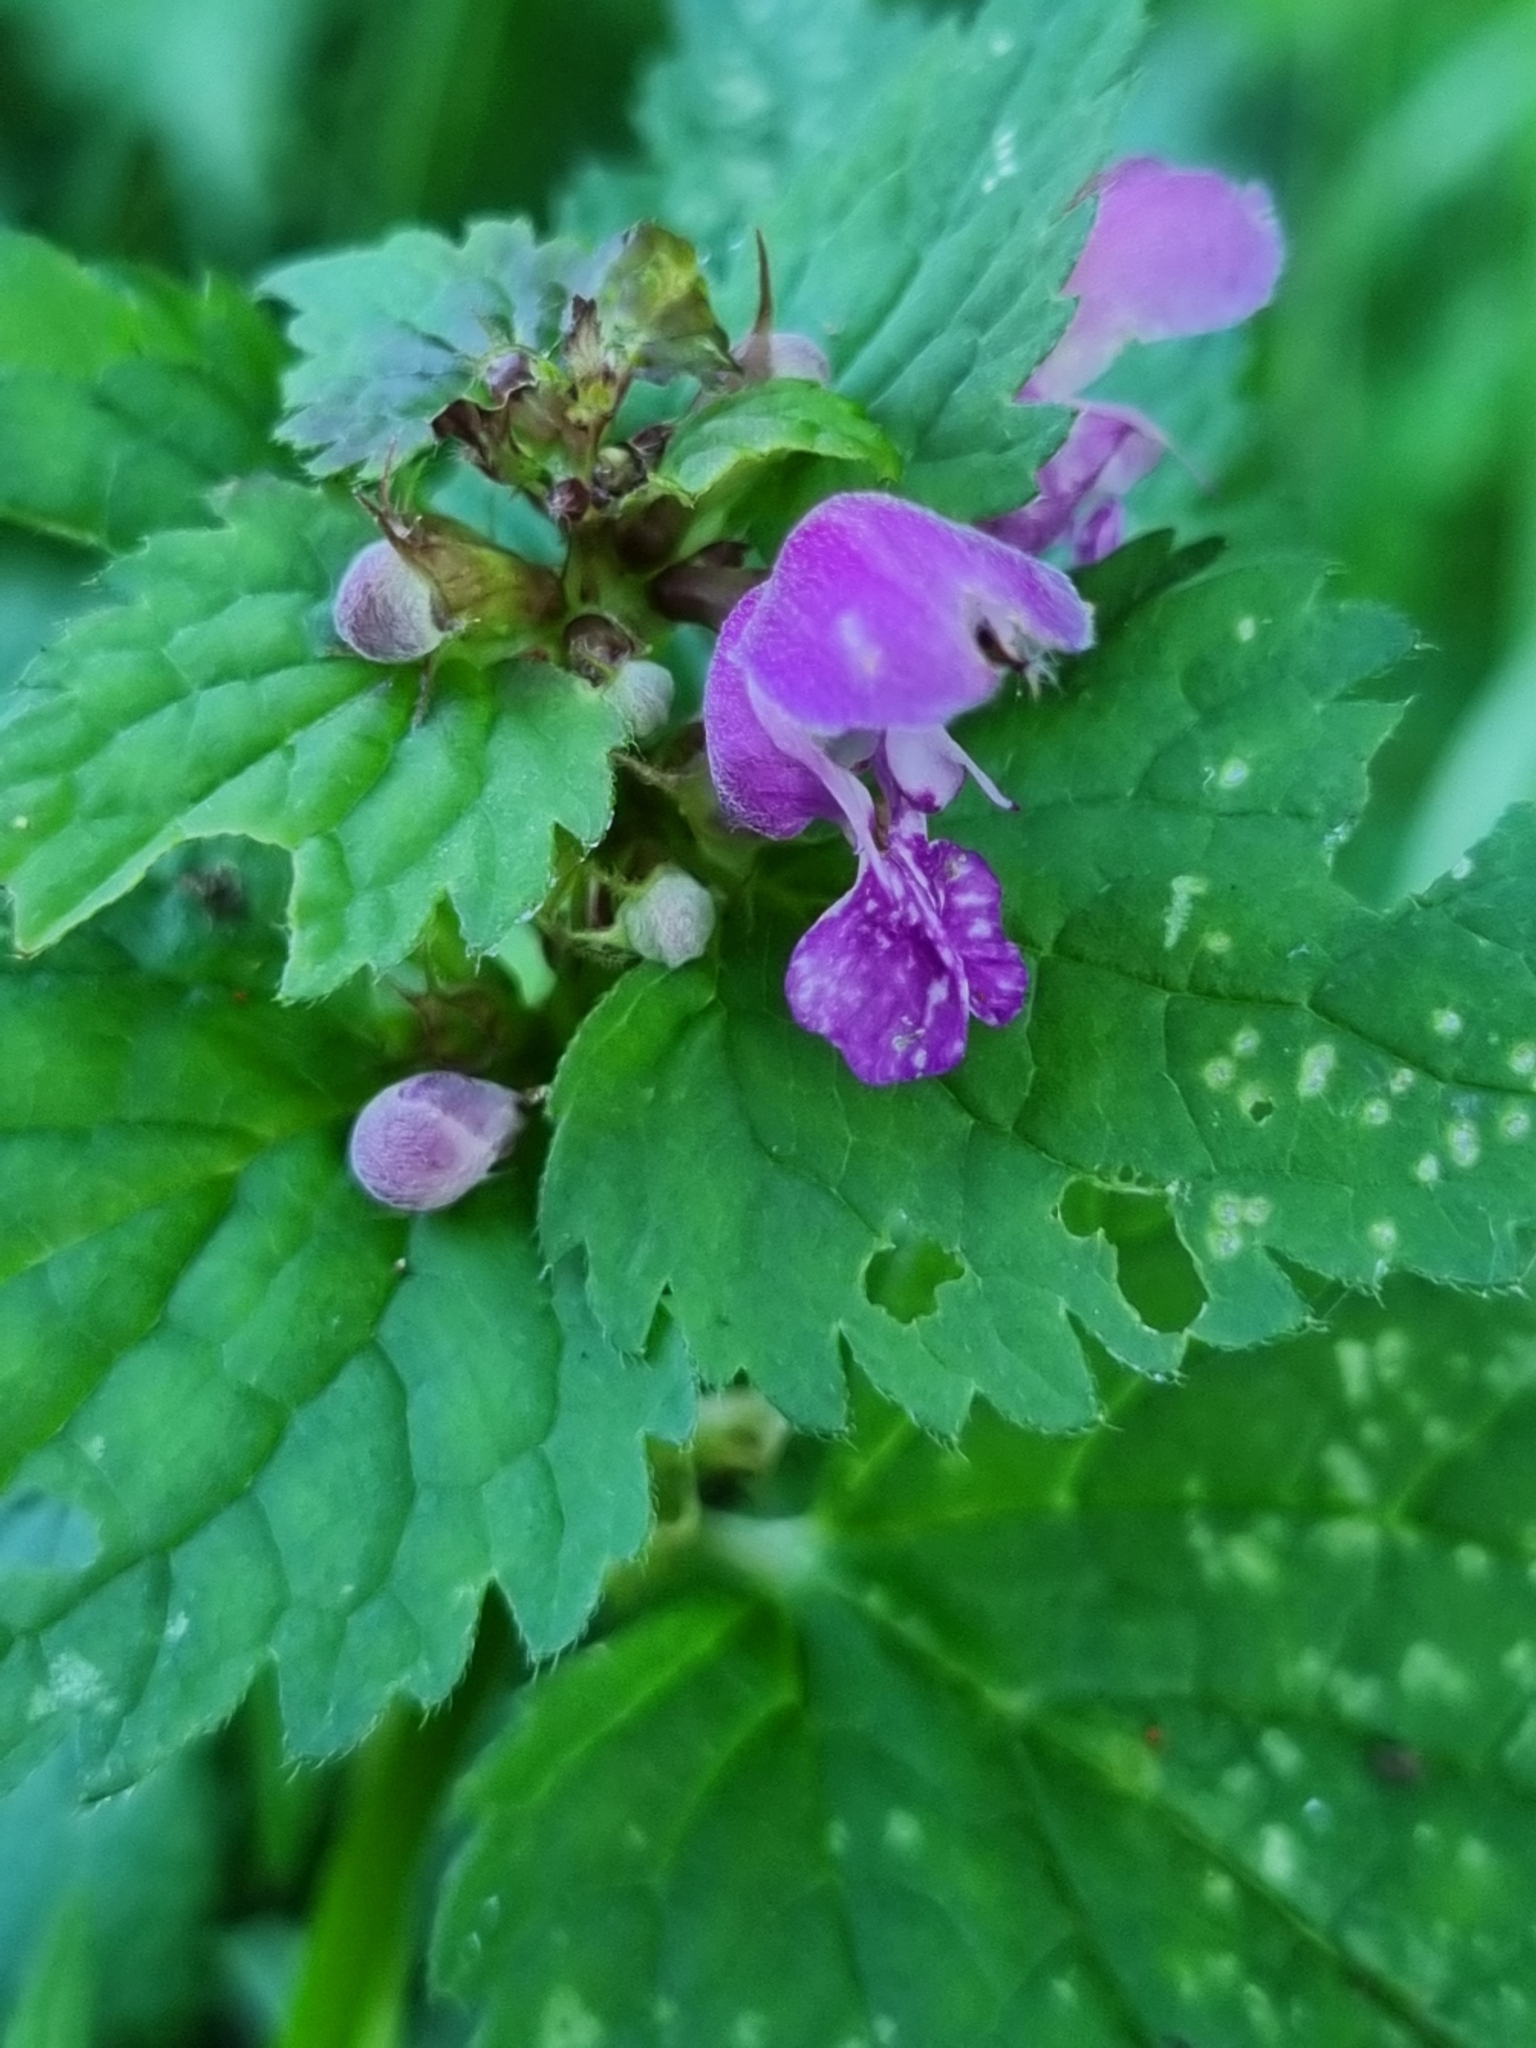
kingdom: Plantae
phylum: Tracheophyta
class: Magnoliopsida
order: Lamiales
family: Lamiaceae
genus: Lamium
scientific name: Lamium maculatum
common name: Spotted dead-nettle
